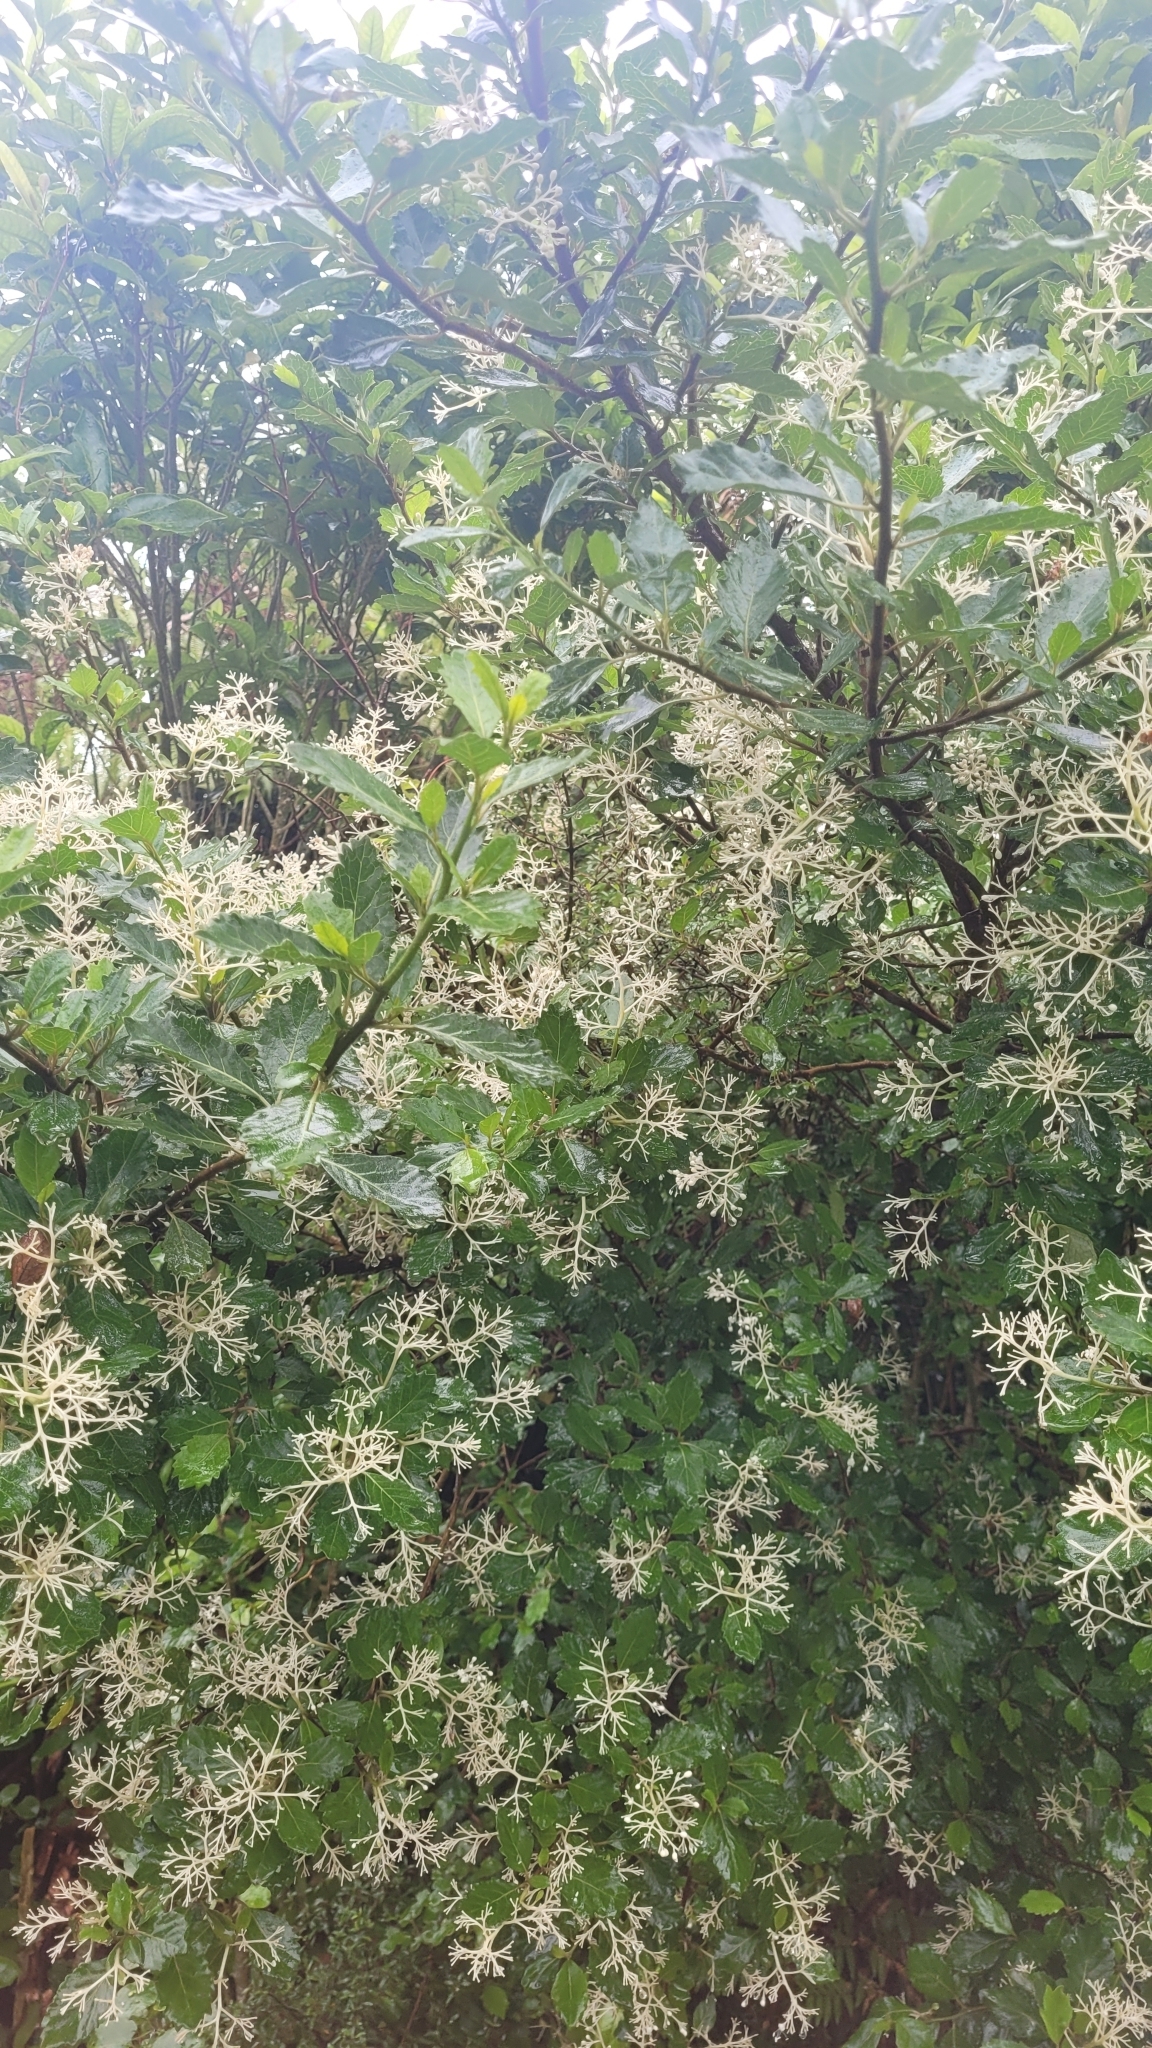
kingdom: Plantae
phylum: Tracheophyta
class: Magnoliopsida
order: Apiales
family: Pennantiaceae
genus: Pennantia
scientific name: Pennantia corymbosa
